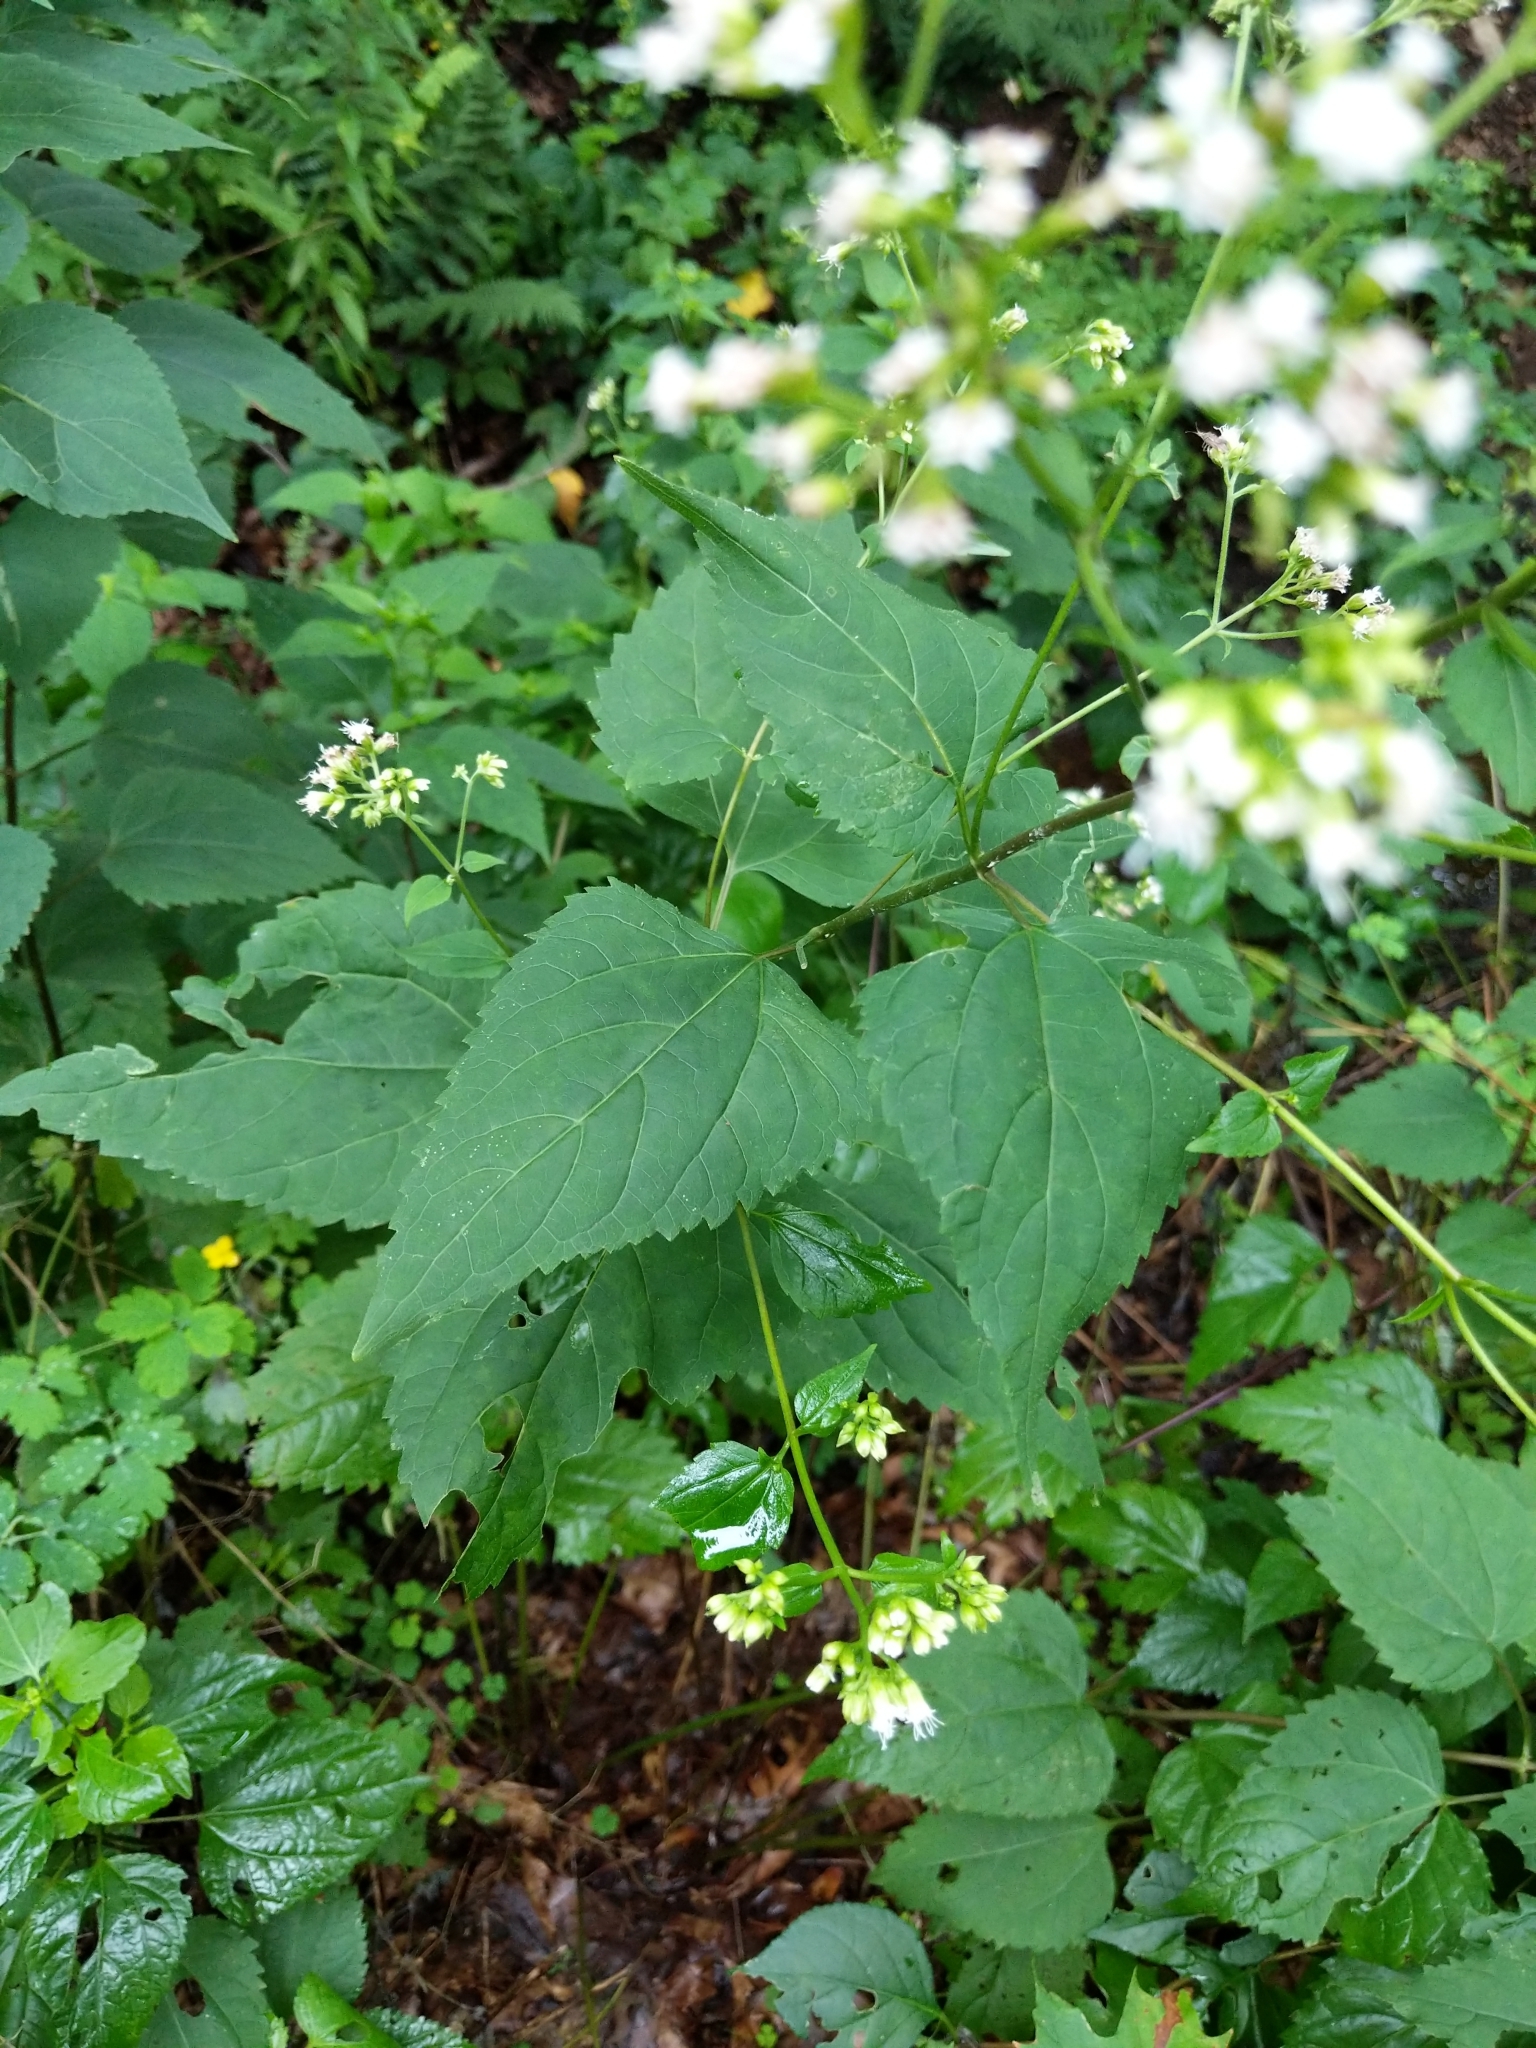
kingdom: Plantae
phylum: Tracheophyta
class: Magnoliopsida
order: Asterales
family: Asteraceae
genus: Ageratina
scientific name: Ageratina altissima
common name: White snakeroot
